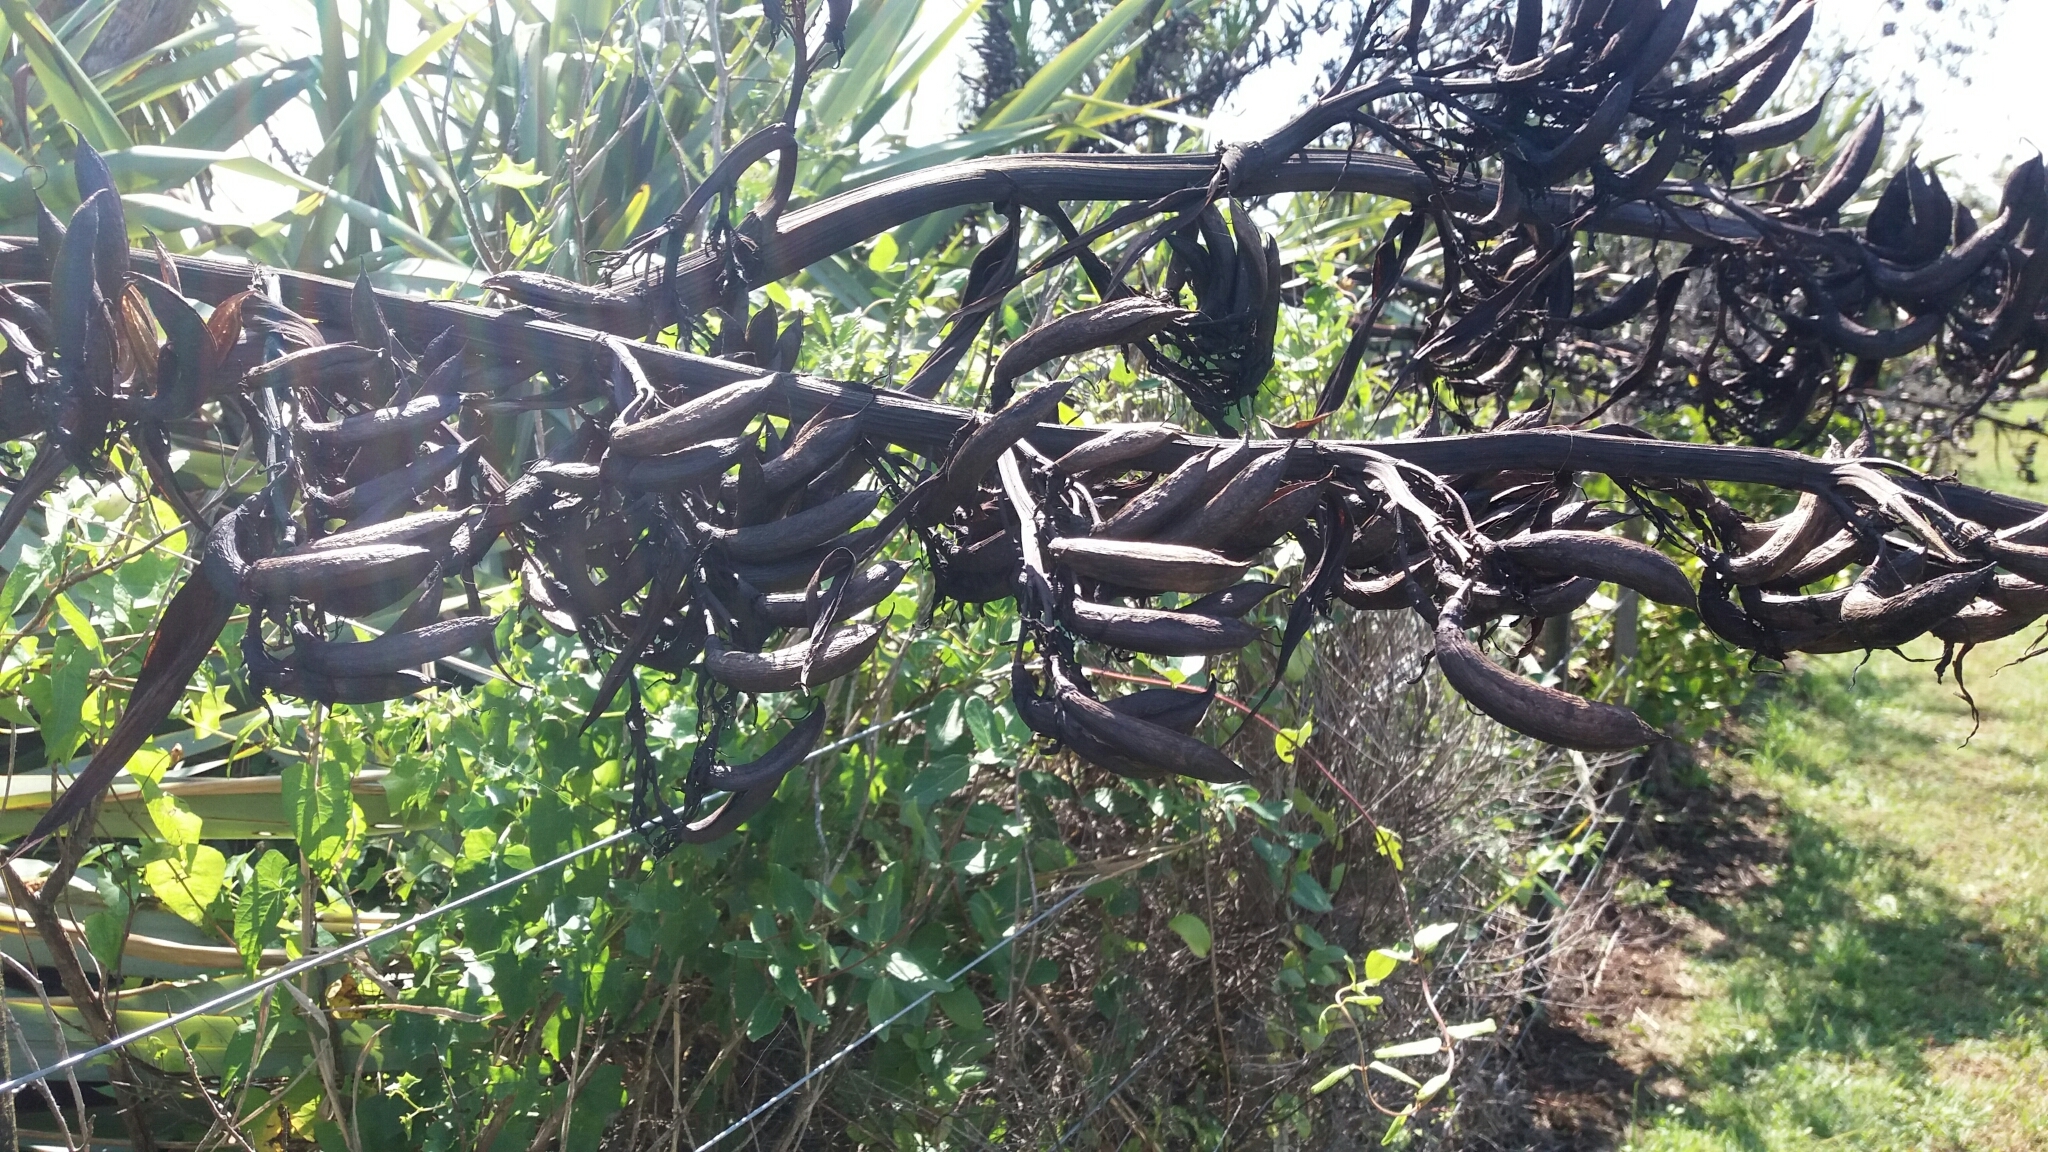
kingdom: Plantae
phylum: Tracheophyta
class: Liliopsida
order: Asparagales
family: Asphodelaceae
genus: Phormium
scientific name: Phormium tenax
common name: New zealand flax
